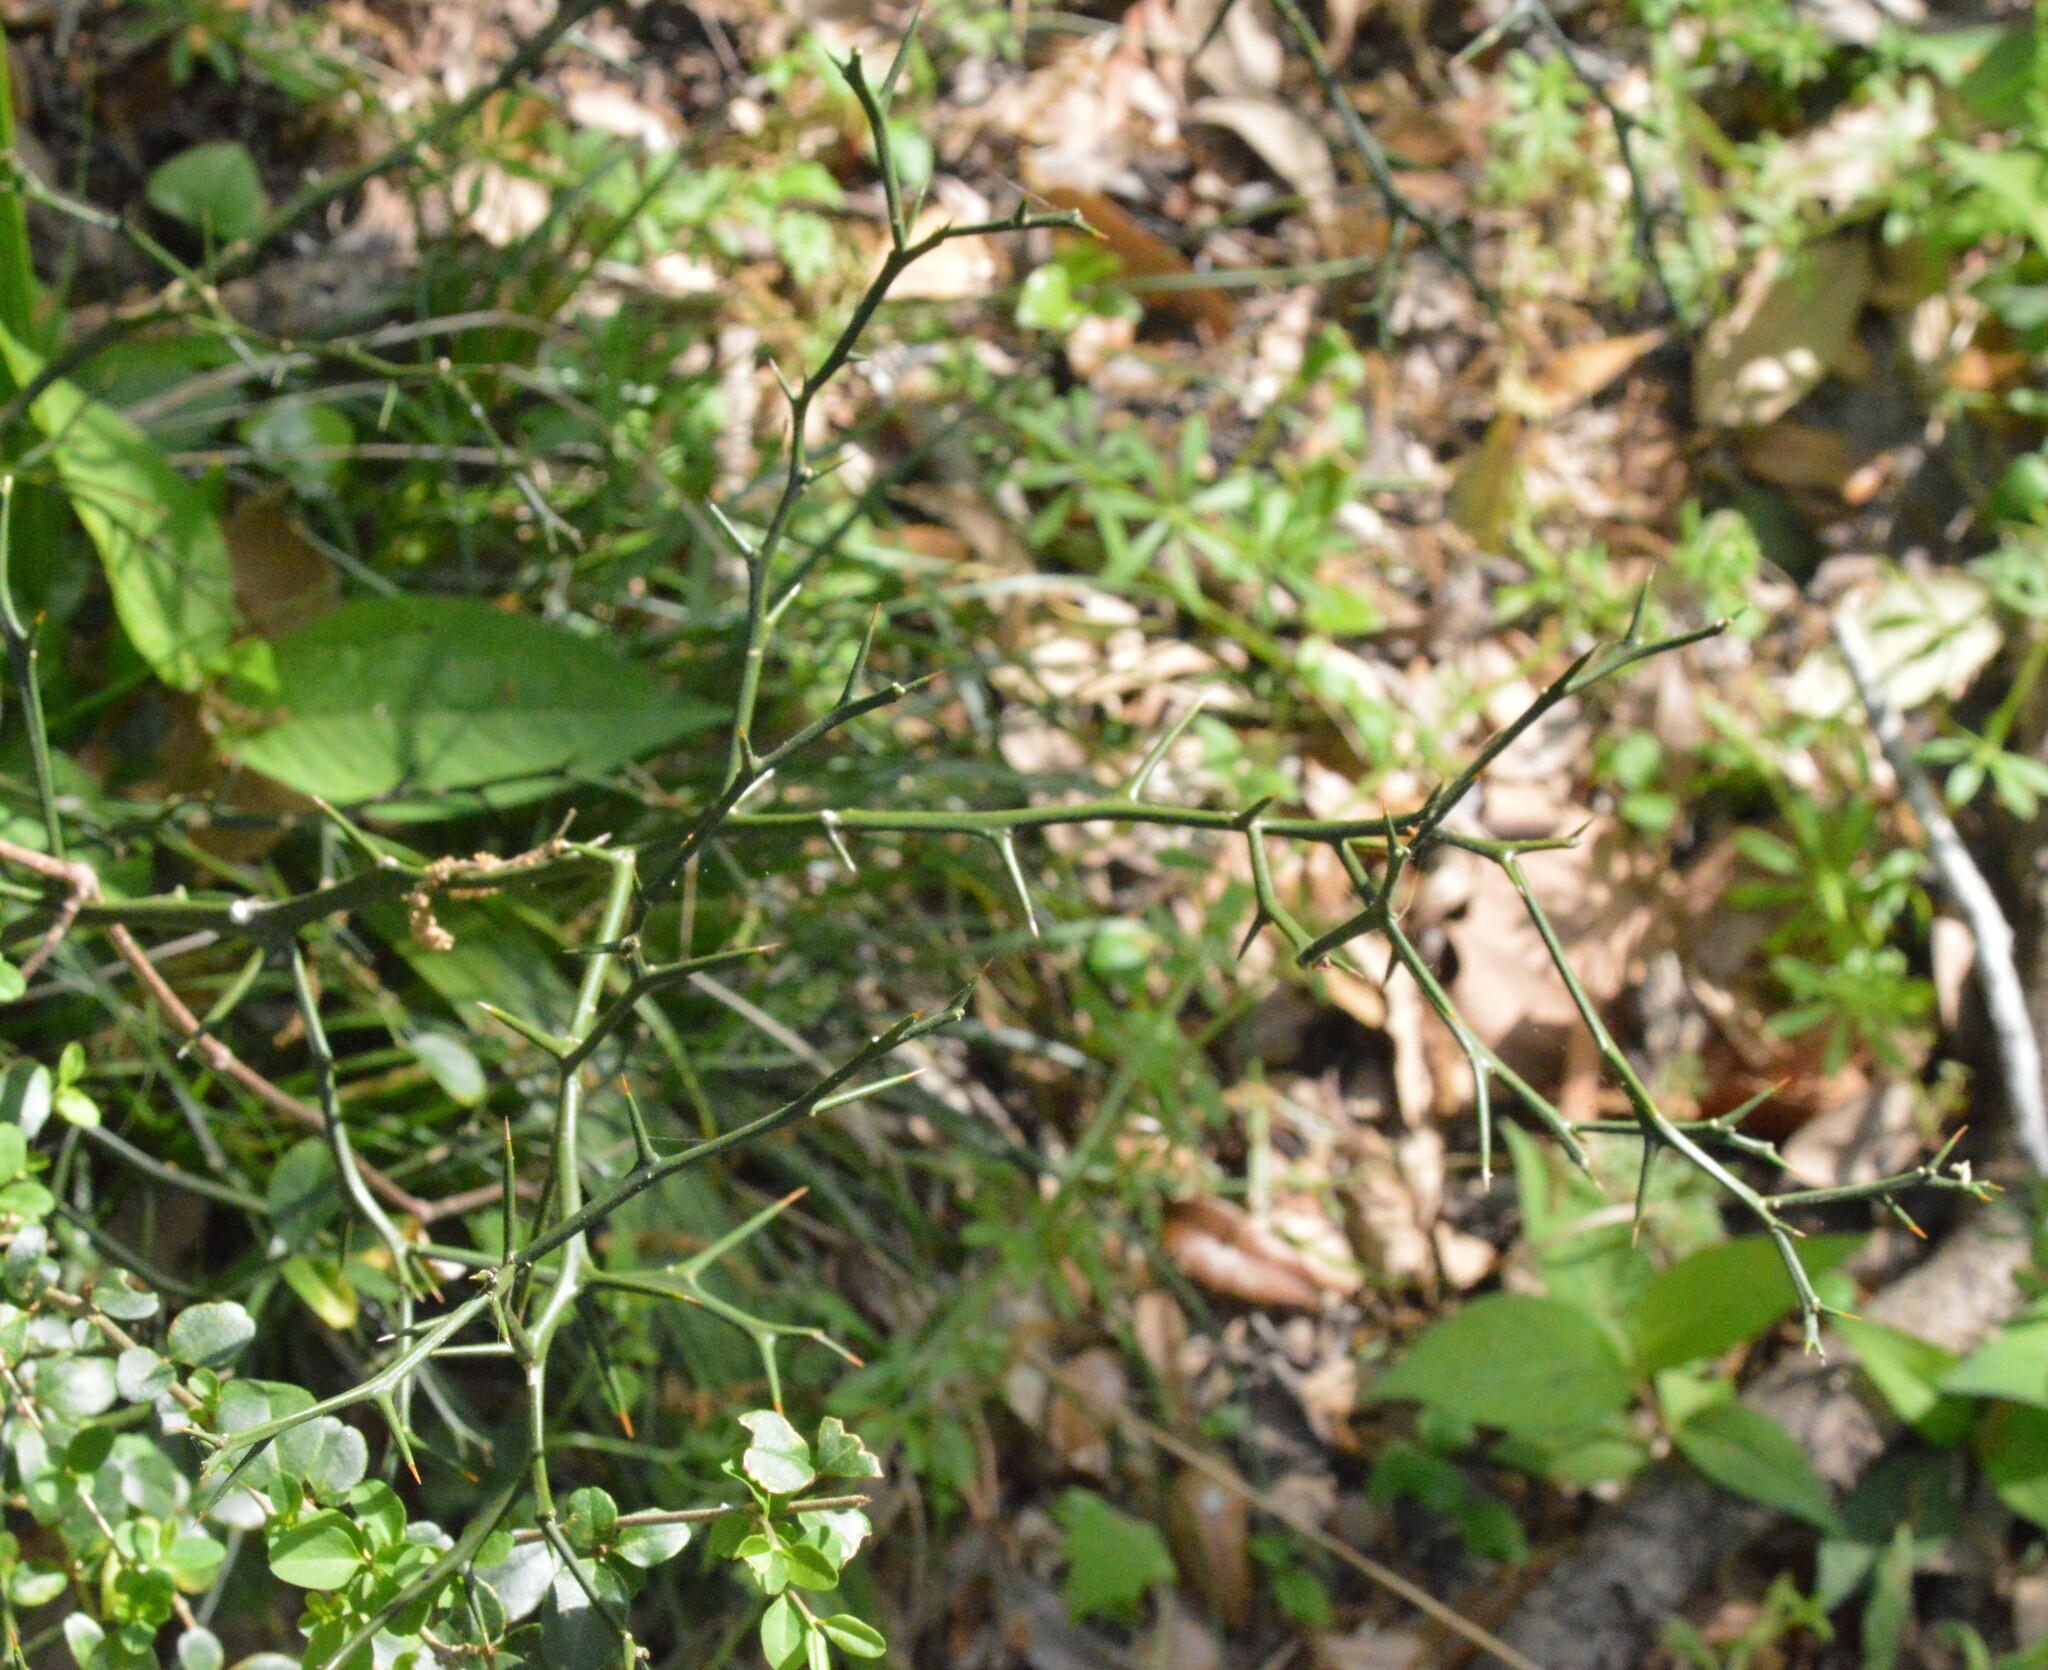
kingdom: Plantae
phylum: Tracheophyta
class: Magnoliopsida
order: Sapindales
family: Rutaceae
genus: Citrus
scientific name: Citrus trifoliata
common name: Japanese bitter-orange
